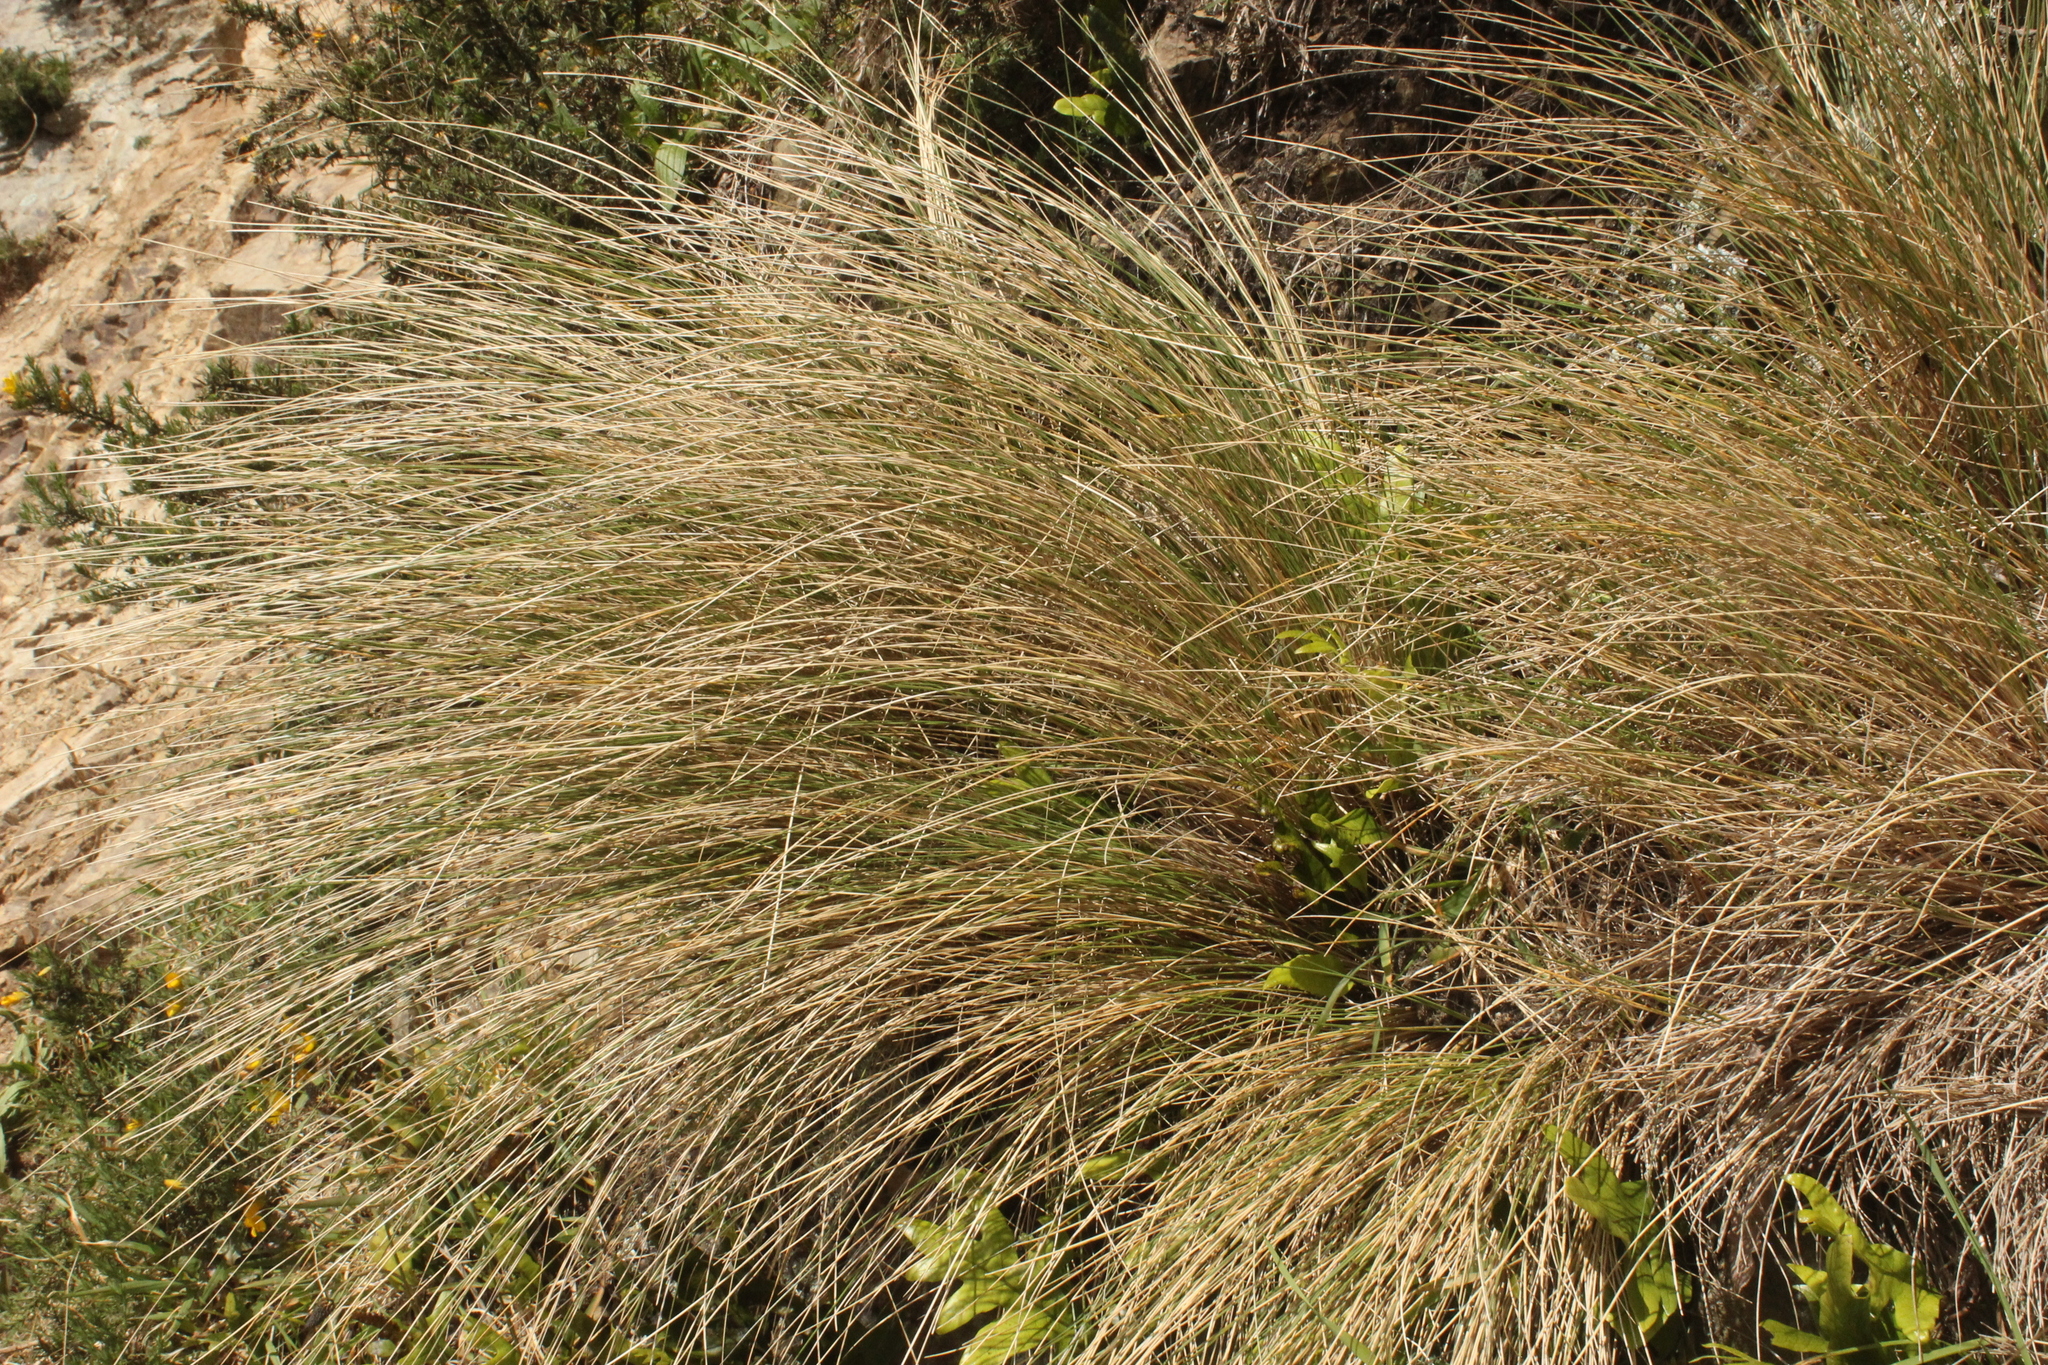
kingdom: Plantae
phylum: Tracheophyta
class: Liliopsida
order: Poales
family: Poaceae
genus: Poa
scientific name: Poa cita
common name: Silver tussock
